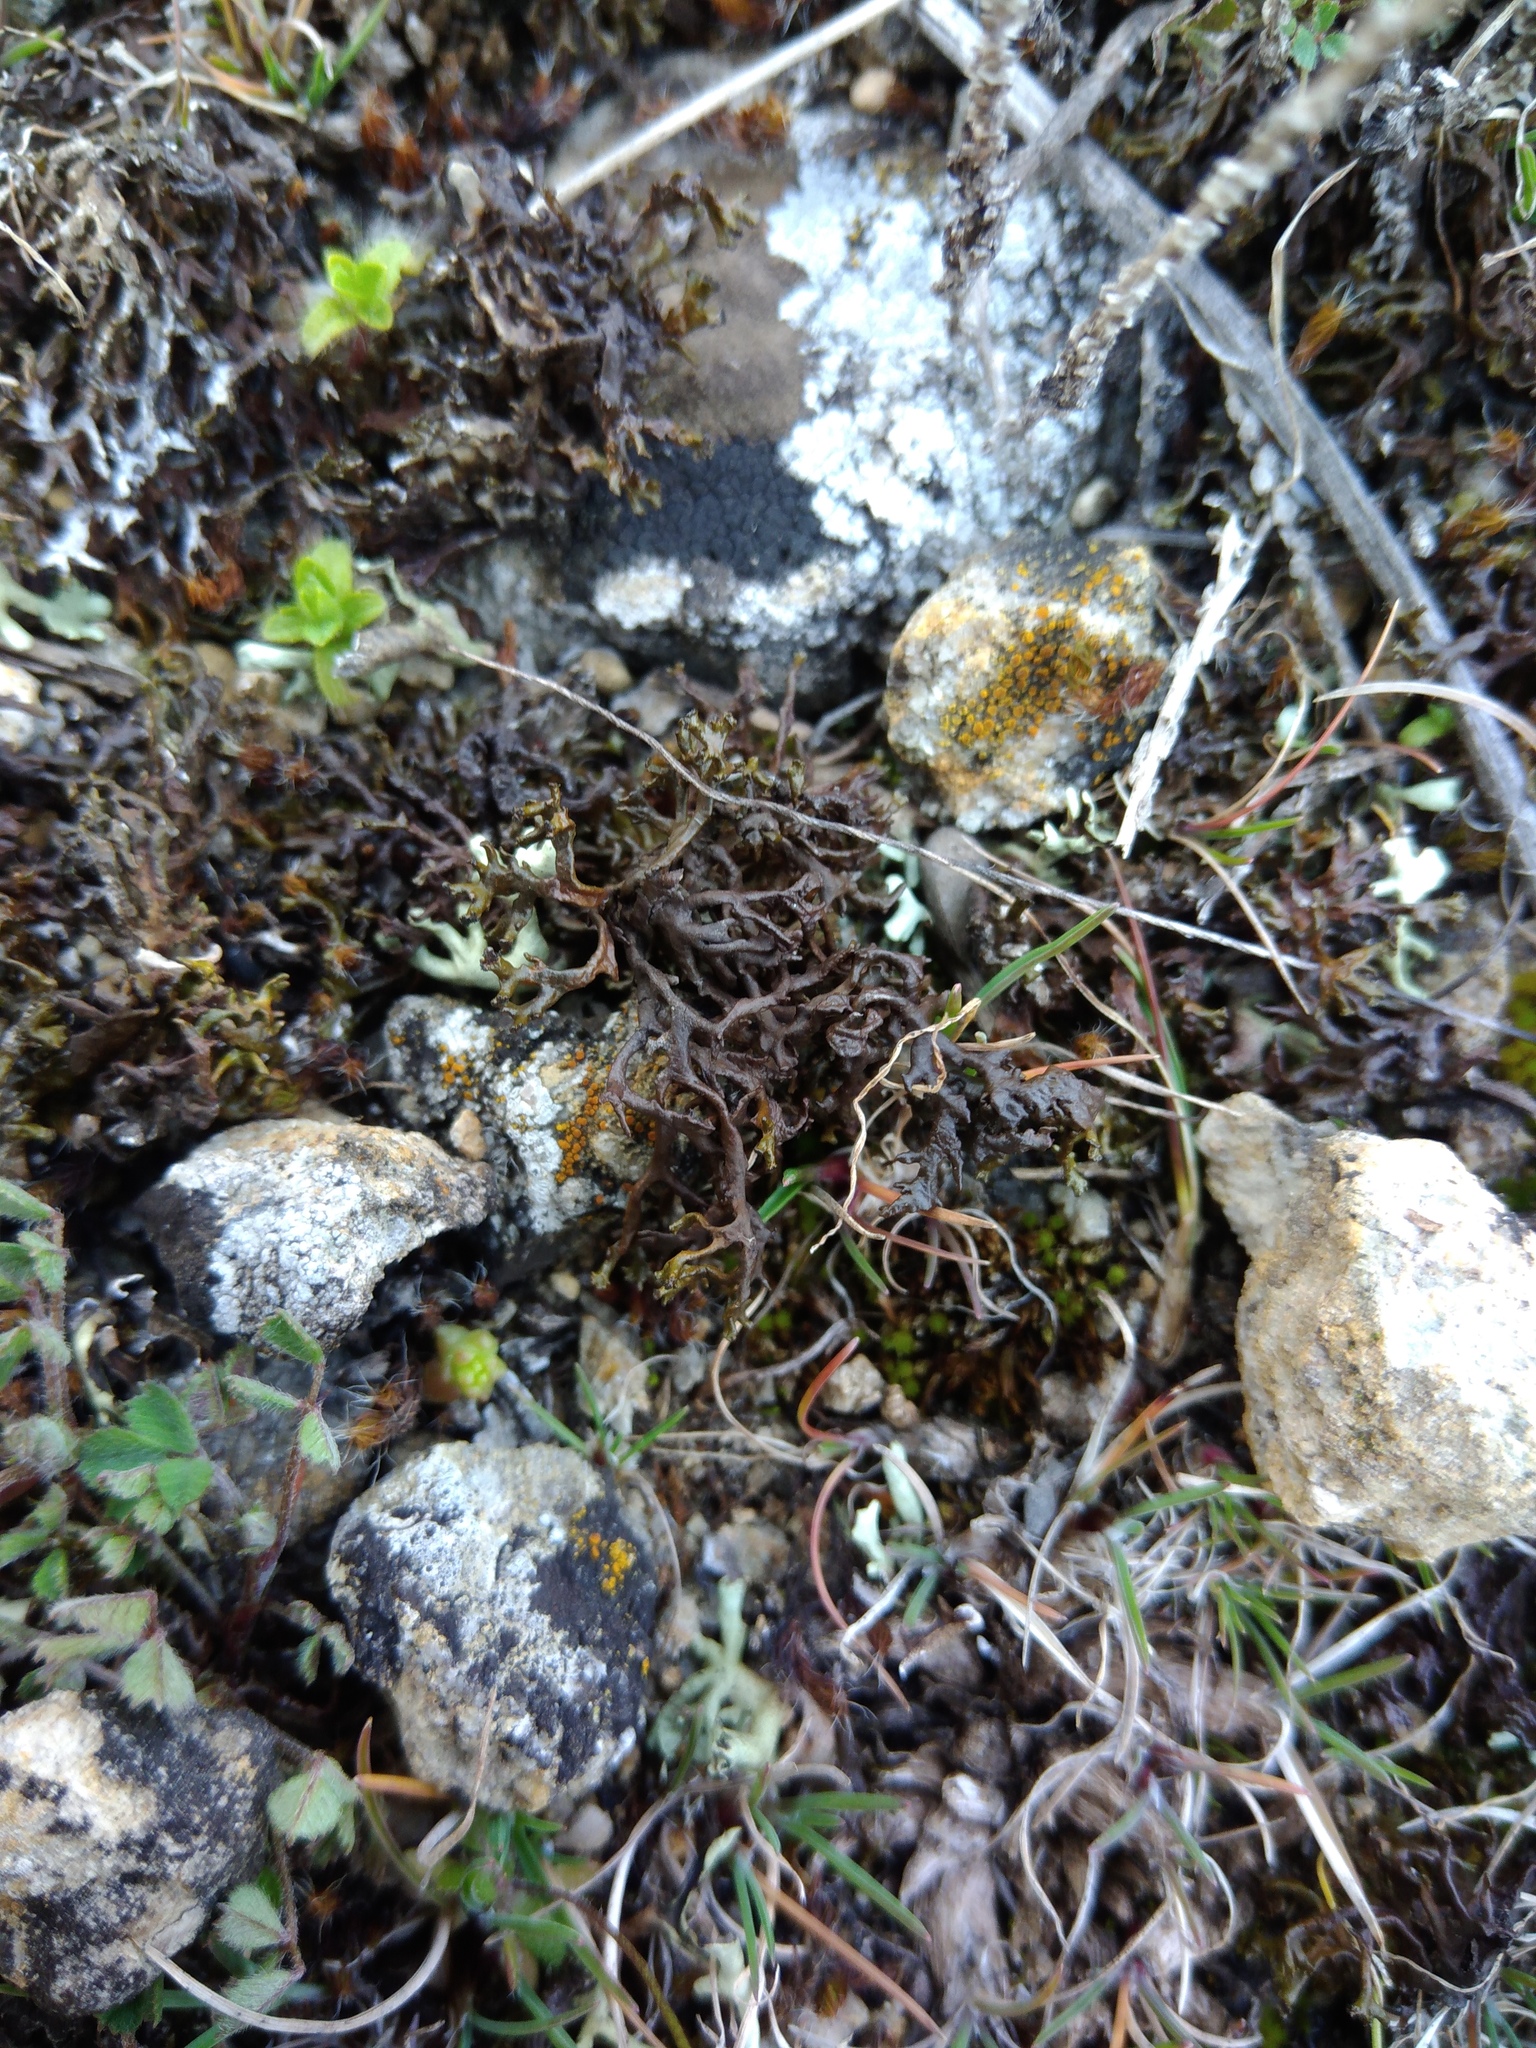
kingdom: Fungi
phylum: Ascomycota
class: Lecanoromycetes
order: Lecanorales
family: Parmeliaceae
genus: Xanthoparmelia
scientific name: Xanthoparmelia pokornyi
